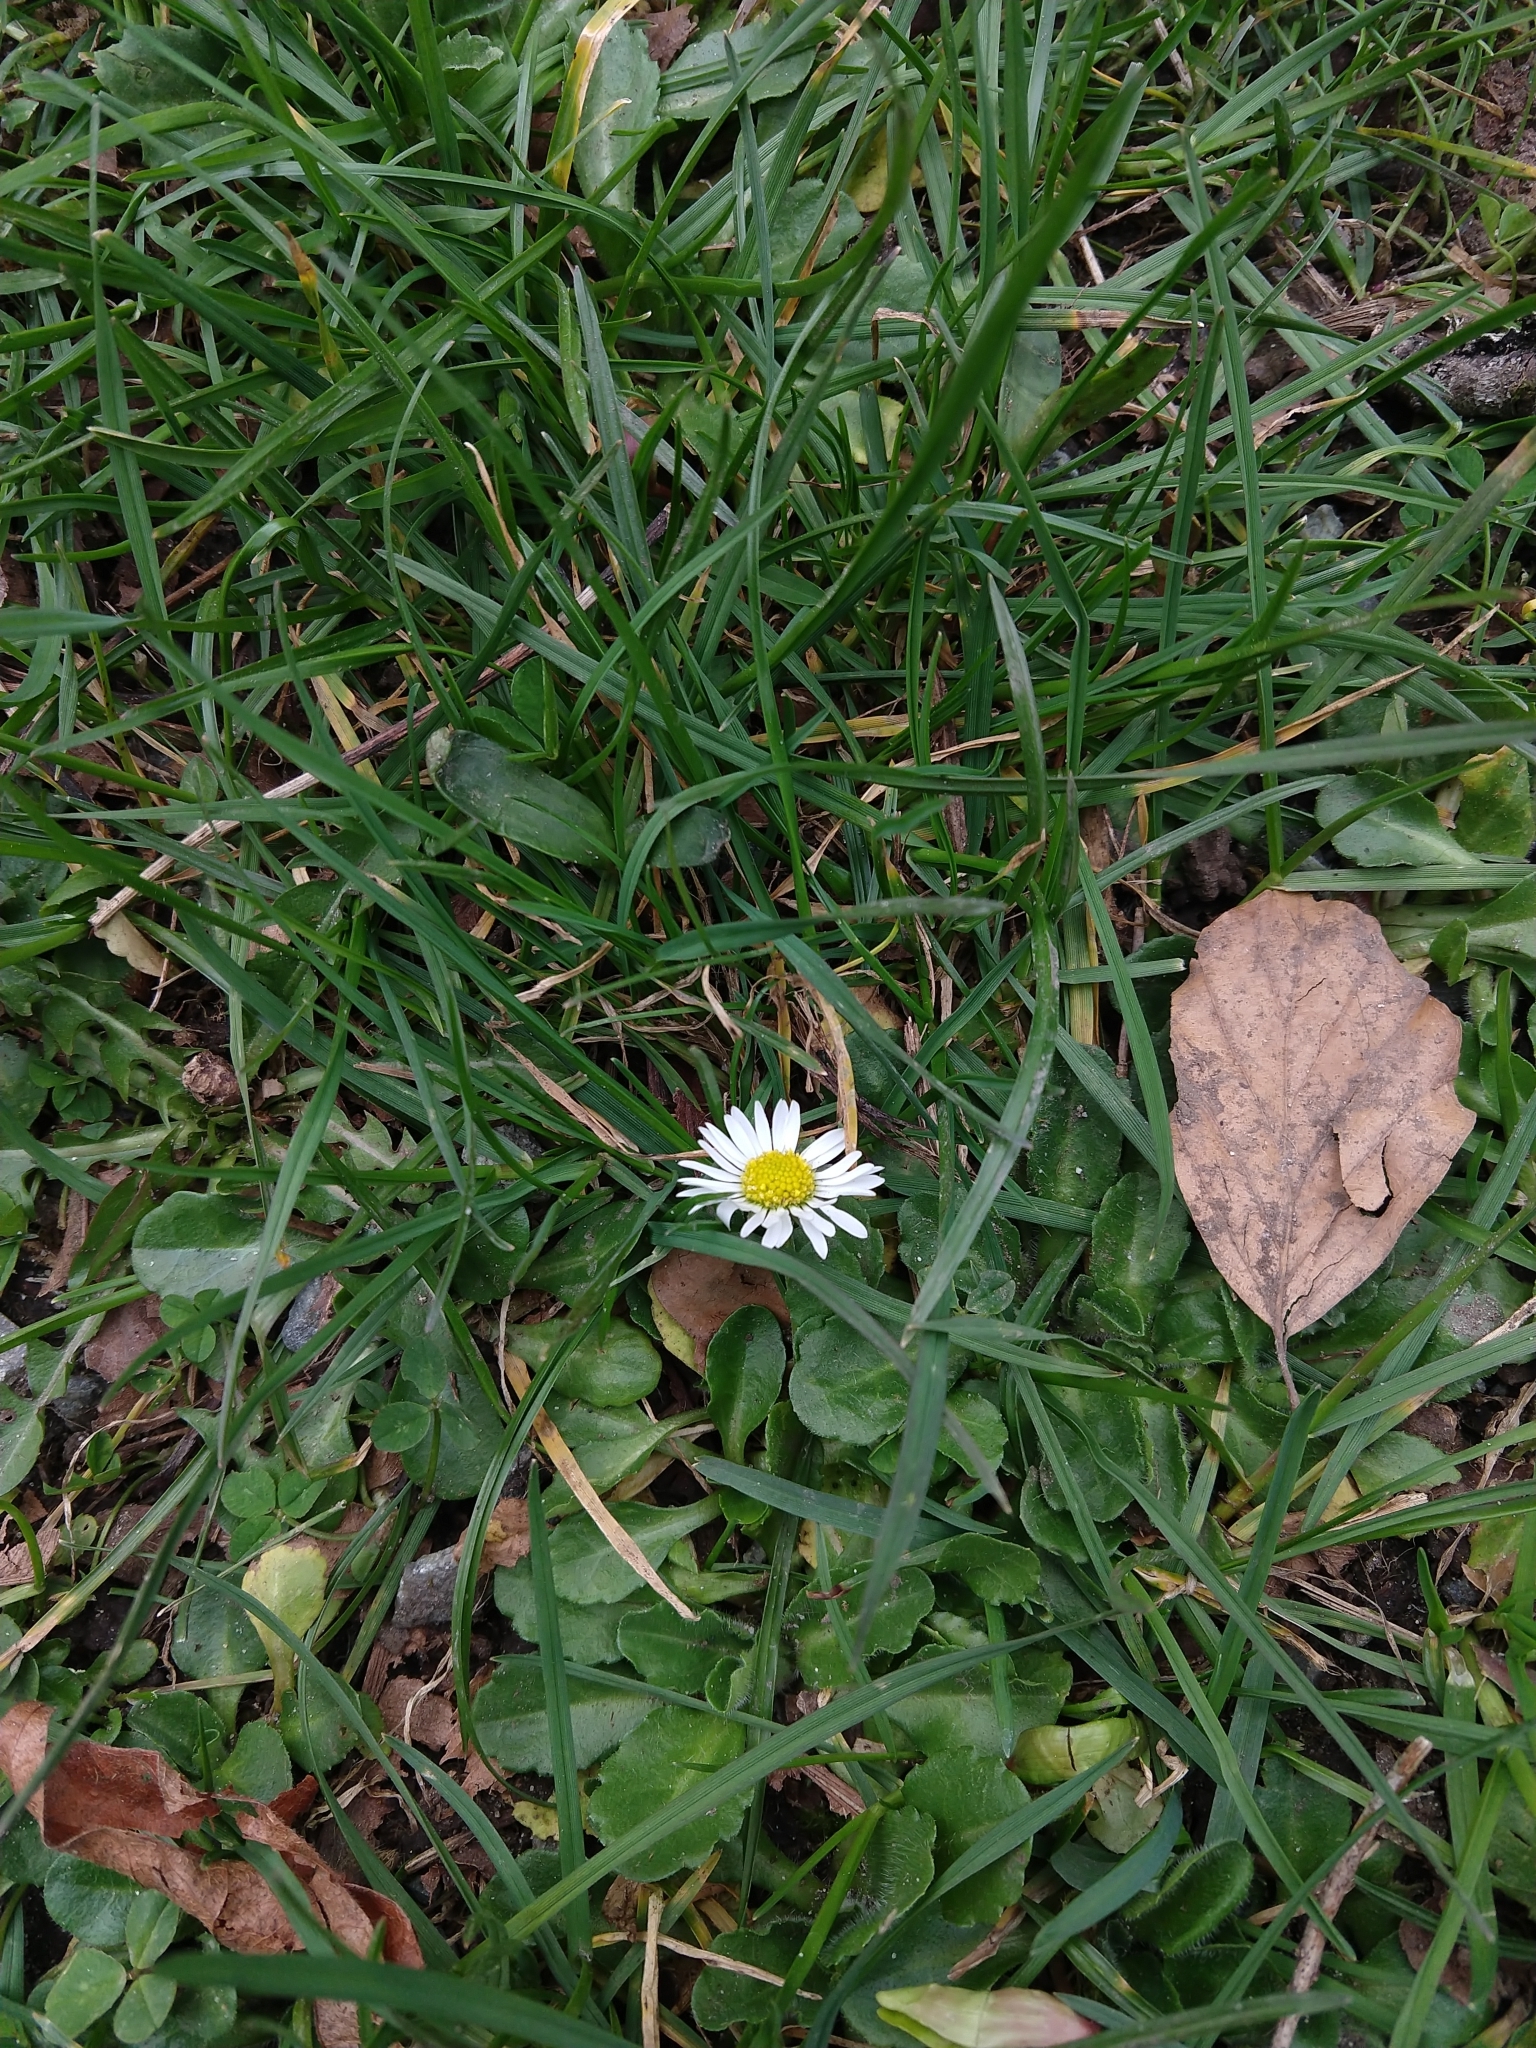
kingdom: Plantae
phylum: Tracheophyta
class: Magnoliopsida
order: Asterales
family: Asteraceae
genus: Bellis
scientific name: Bellis perennis
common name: Lawndaisy
